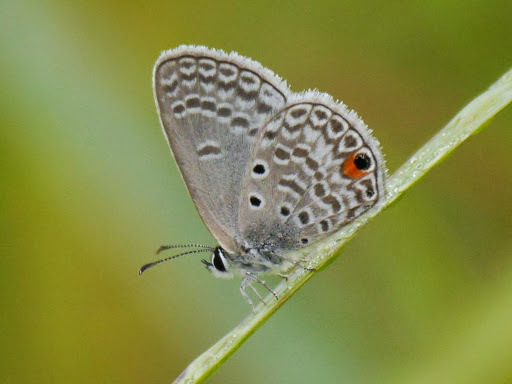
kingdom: Animalia
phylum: Arthropoda
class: Insecta
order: Lepidoptera
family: Lycaenidae
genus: Euchrysops
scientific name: Euchrysops malathana
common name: Common smoky blue
